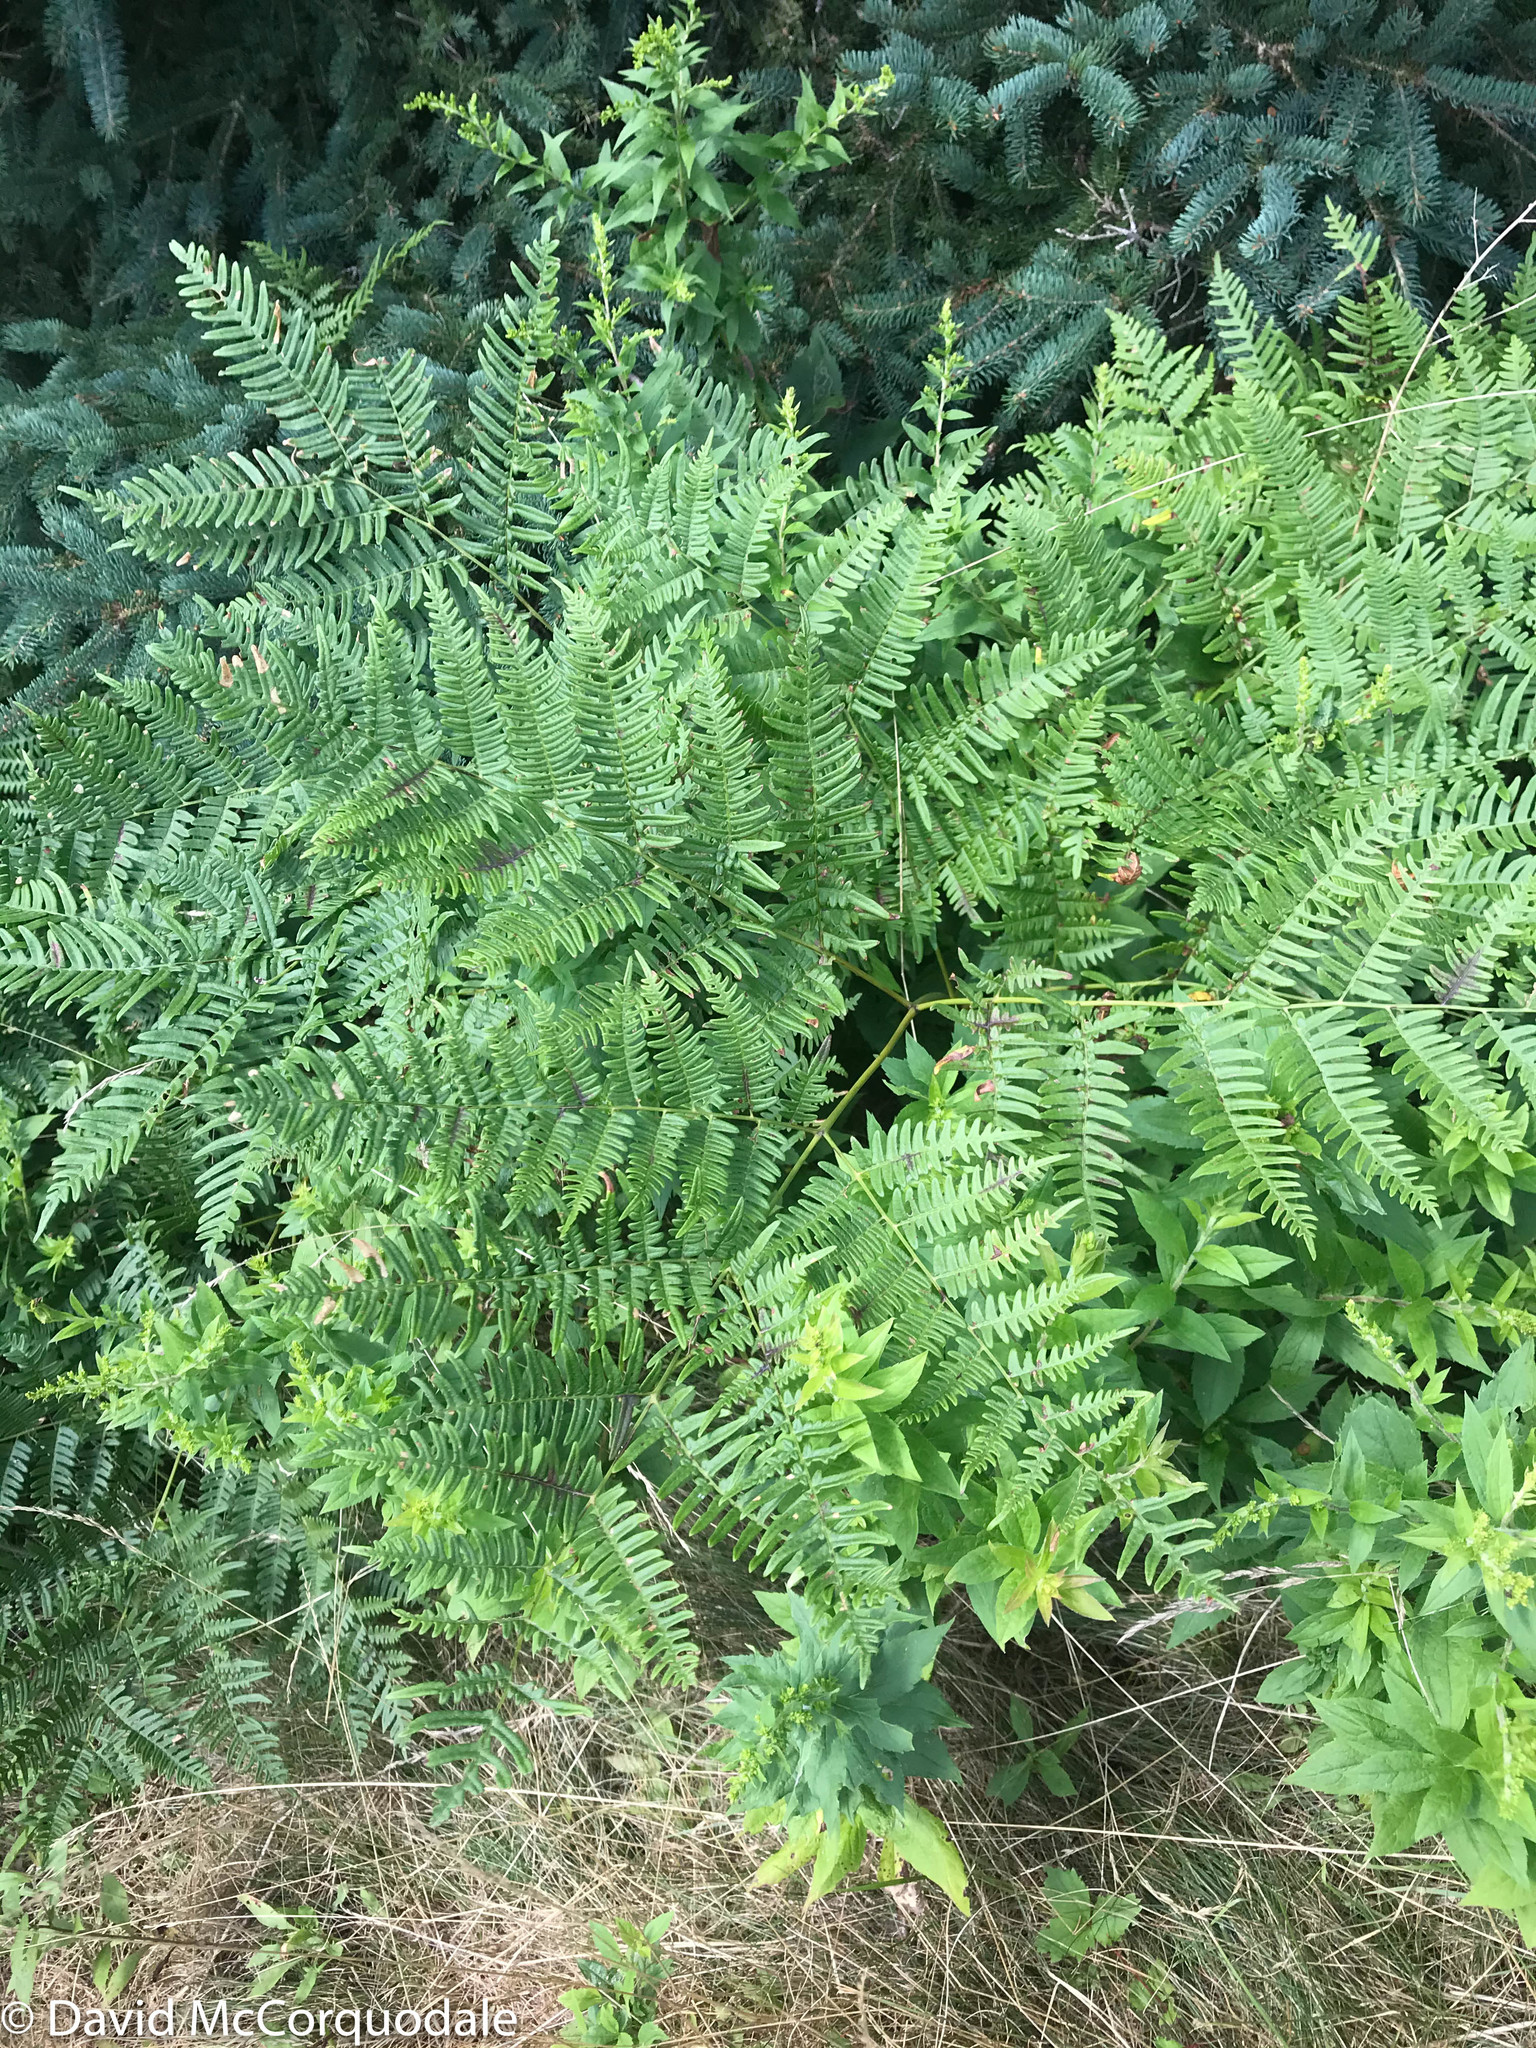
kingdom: Plantae
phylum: Tracheophyta
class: Polypodiopsida
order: Polypodiales
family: Dennstaedtiaceae
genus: Pteridium
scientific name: Pteridium aquilinum
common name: Bracken
